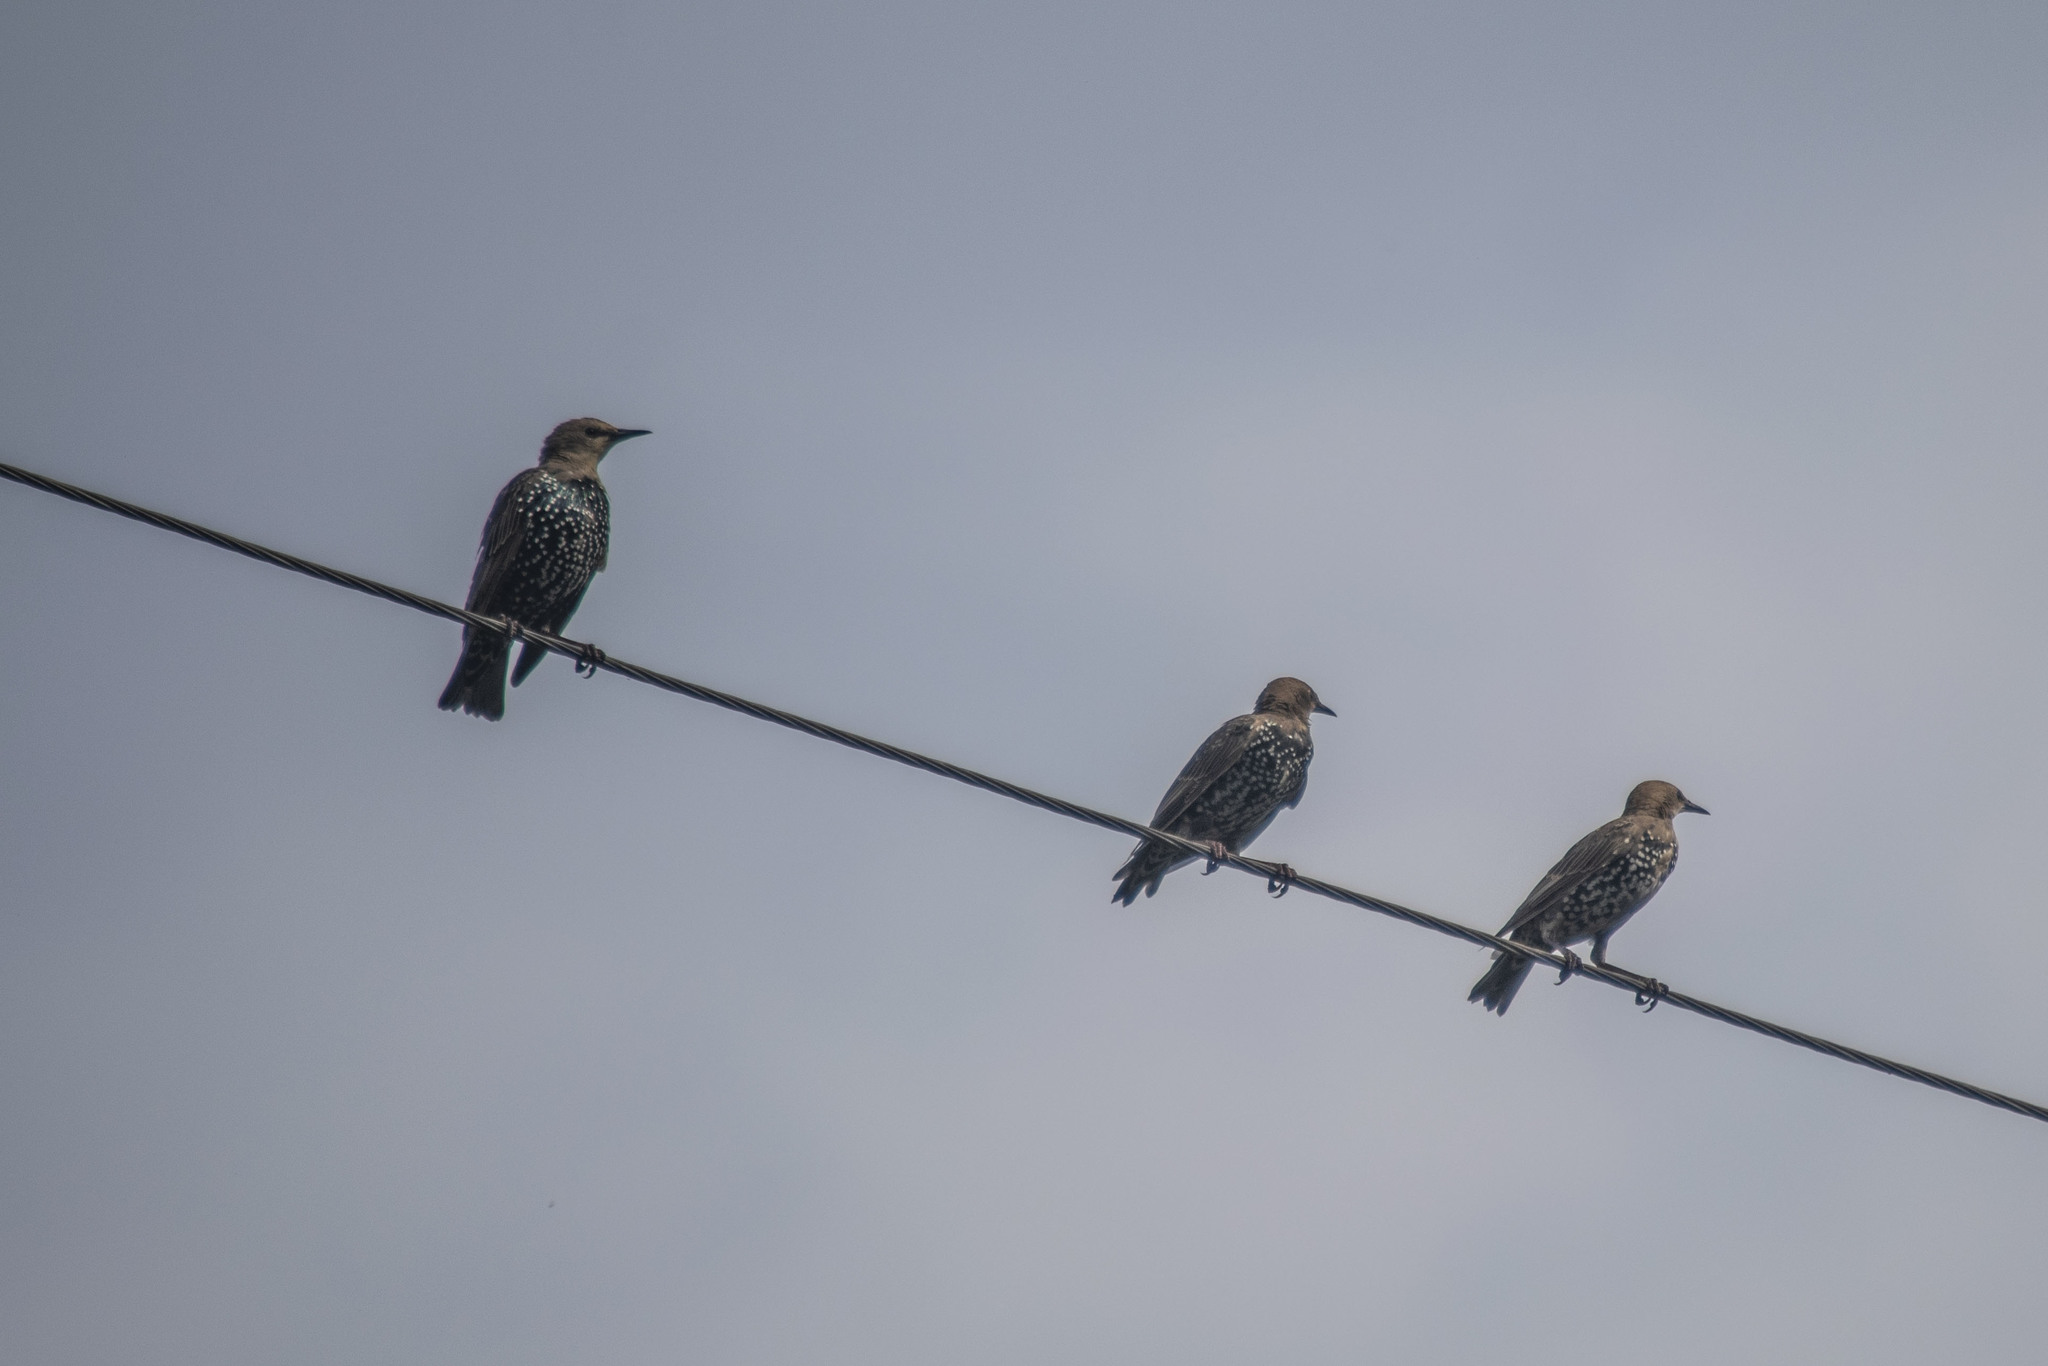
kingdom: Animalia
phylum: Chordata
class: Aves
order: Passeriformes
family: Sturnidae
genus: Sturnus
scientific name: Sturnus vulgaris
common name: Common starling
